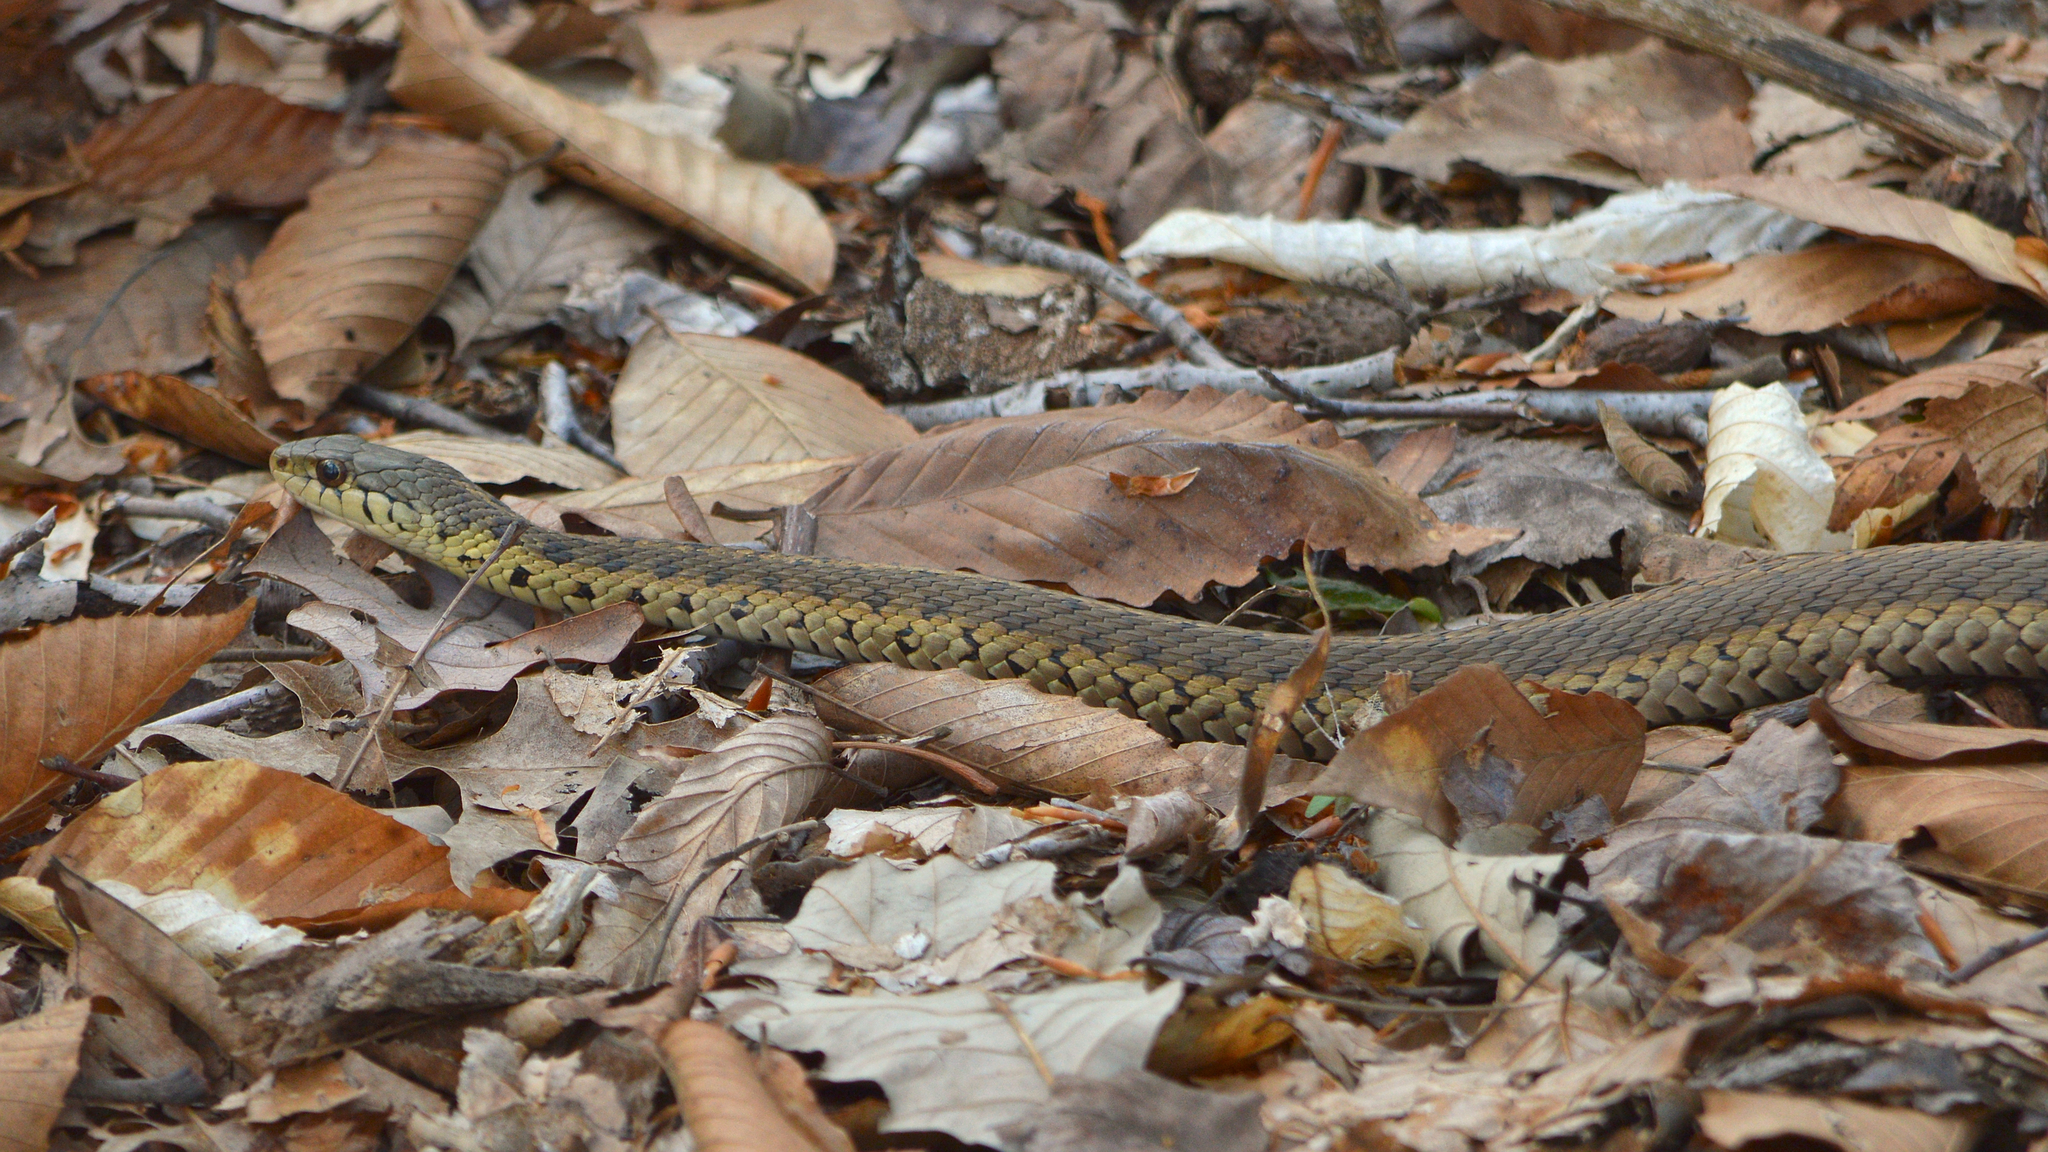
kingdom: Animalia
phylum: Chordata
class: Squamata
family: Colubridae
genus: Thamnophis
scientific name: Thamnophis sirtalis
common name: Common garter snake
